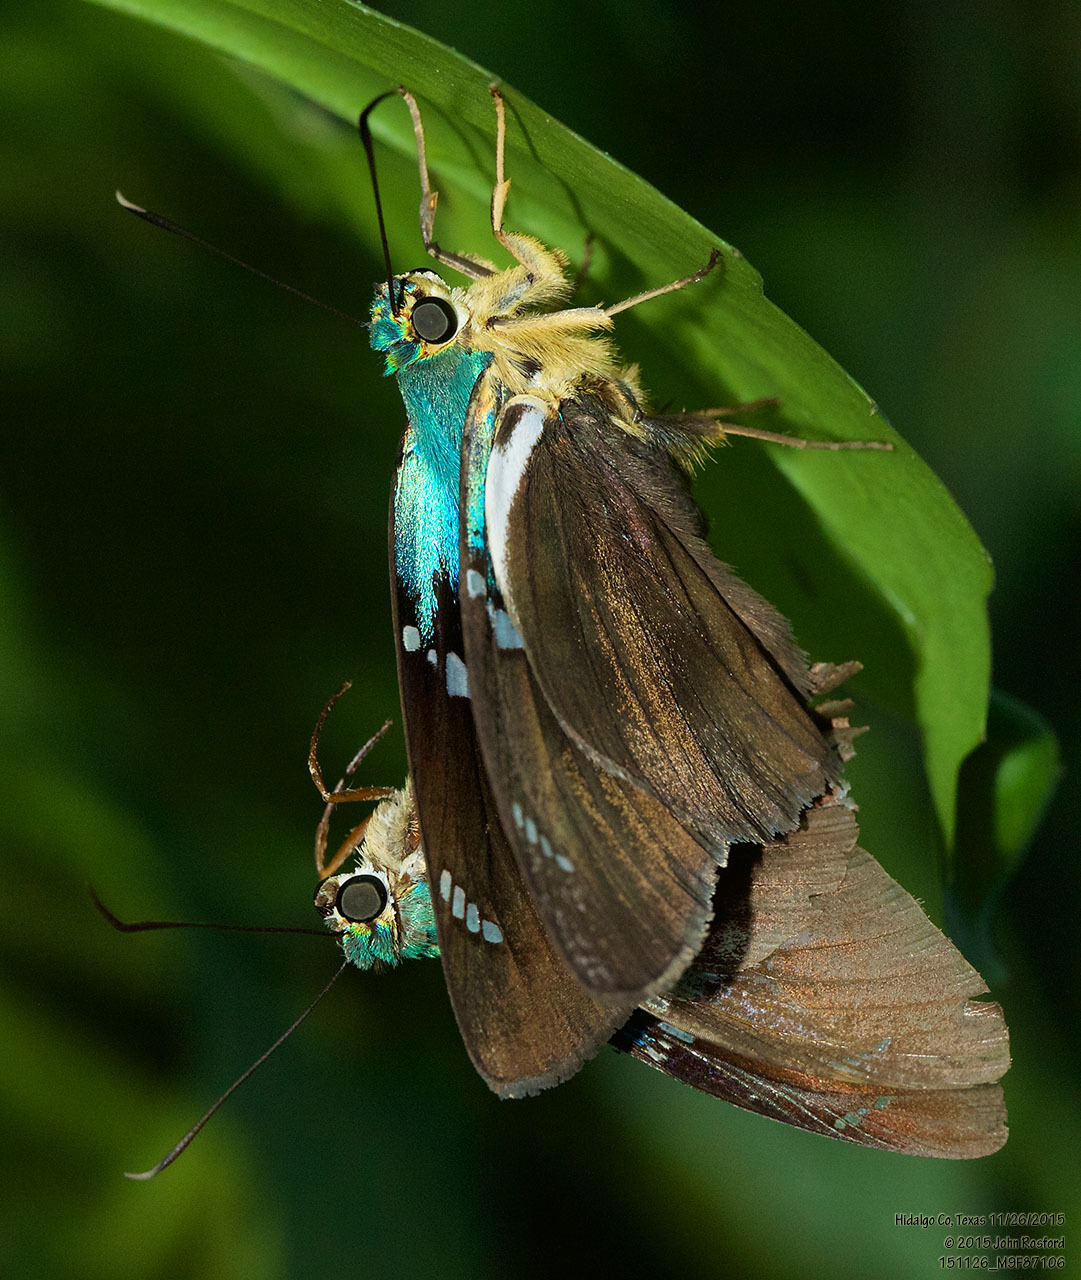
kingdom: Animalia
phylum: Arthropoda
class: Insecta
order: Lepidoptera
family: Hesperiidae
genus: Astraptes
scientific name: Astraptes fulgerator
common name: Two-barred flasher
